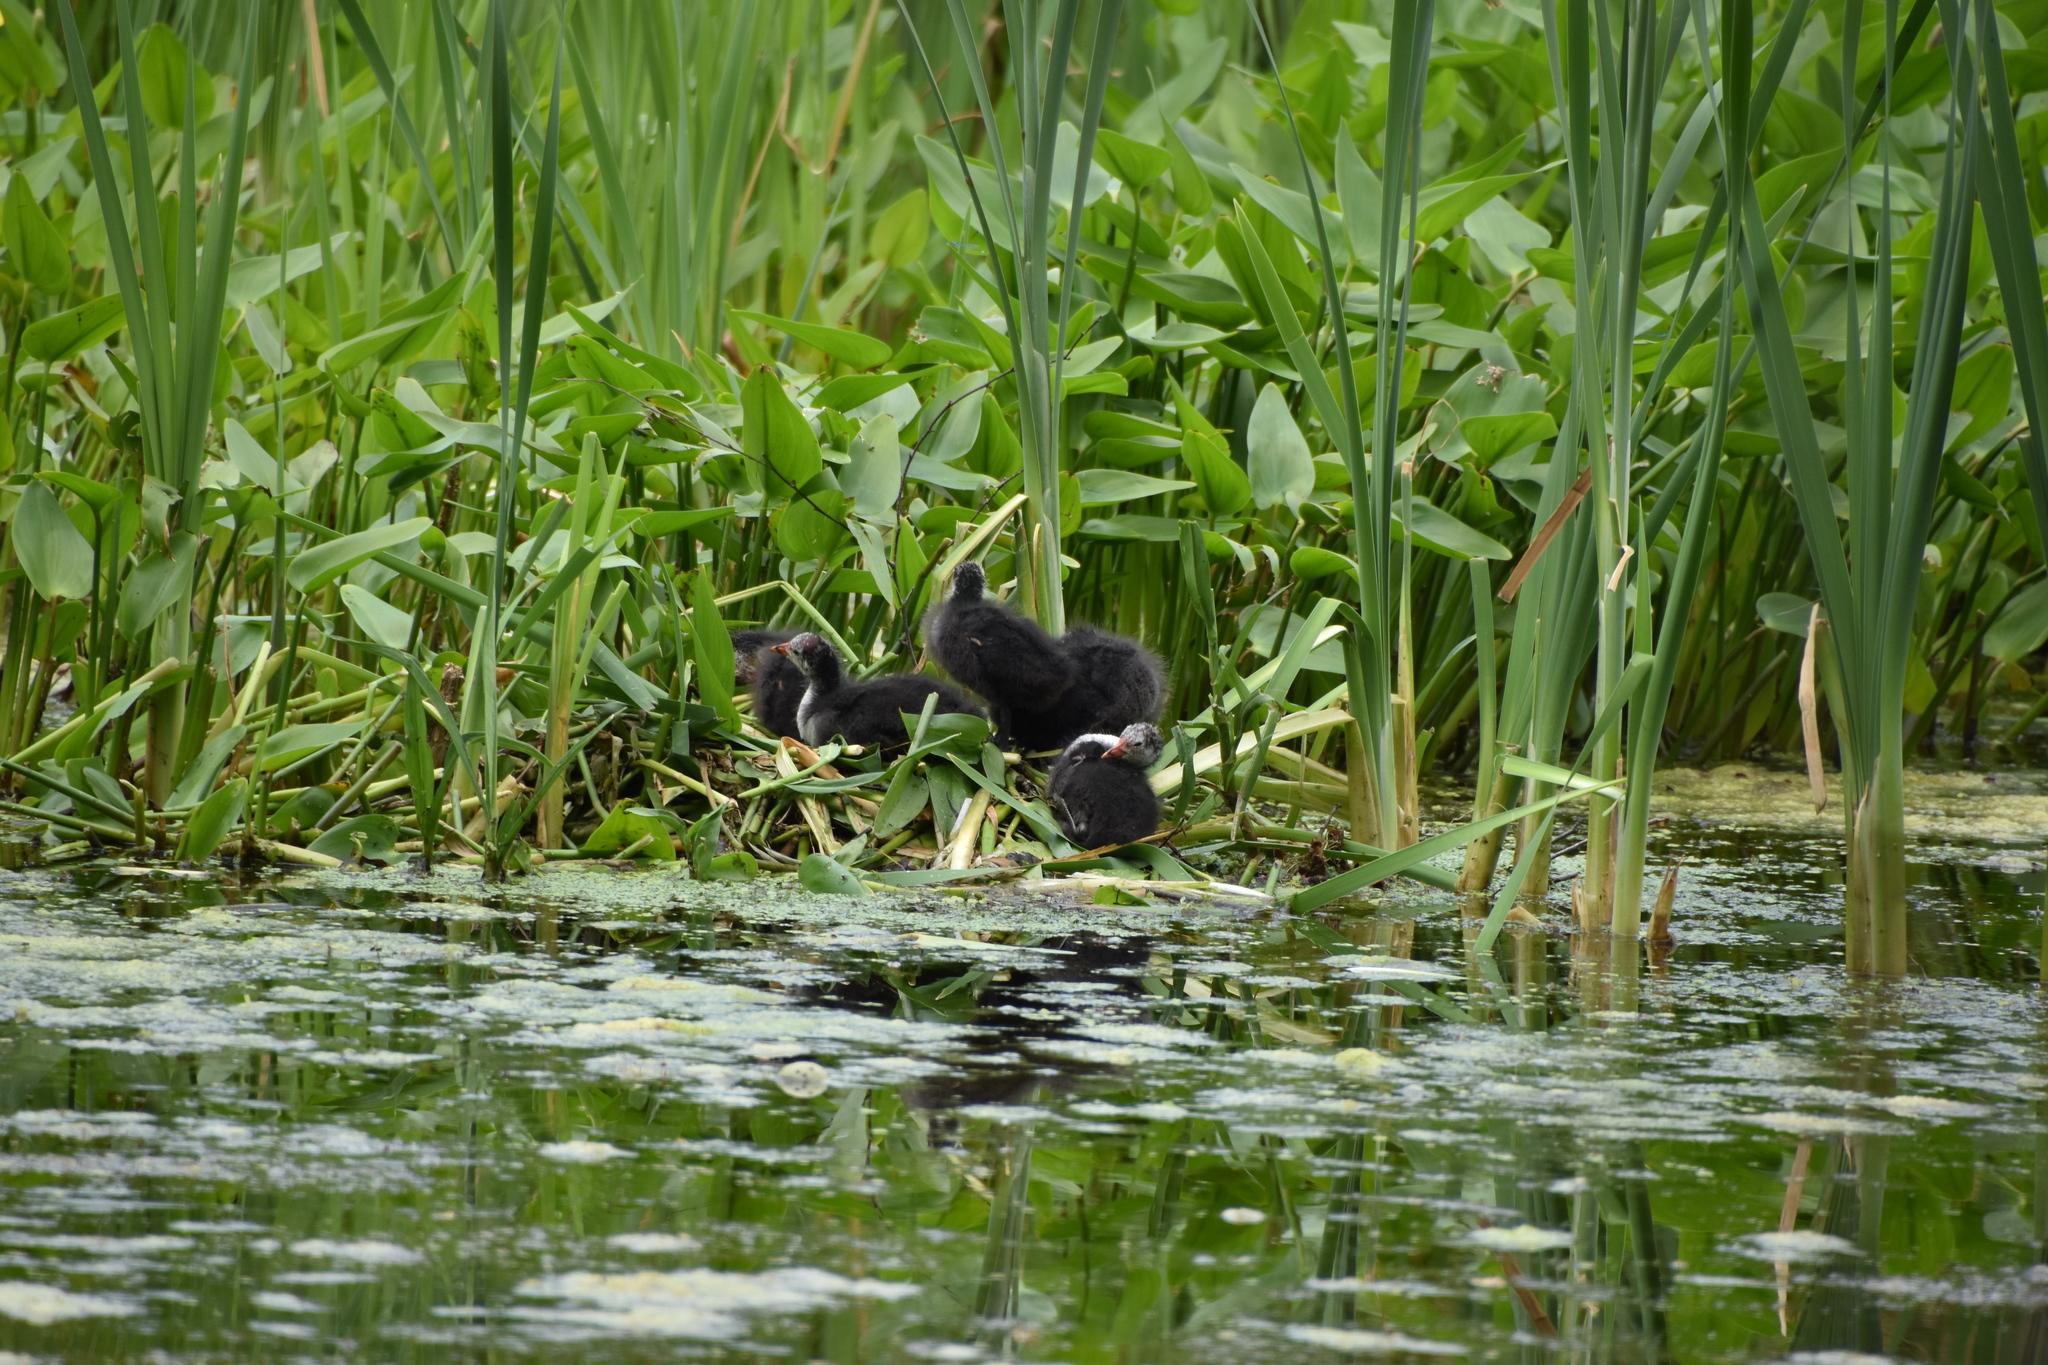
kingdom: Animalia
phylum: Chordata
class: Aves
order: Gruiformes
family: Rallidae
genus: Fulica
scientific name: Fulica atra
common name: Eurasian coot
